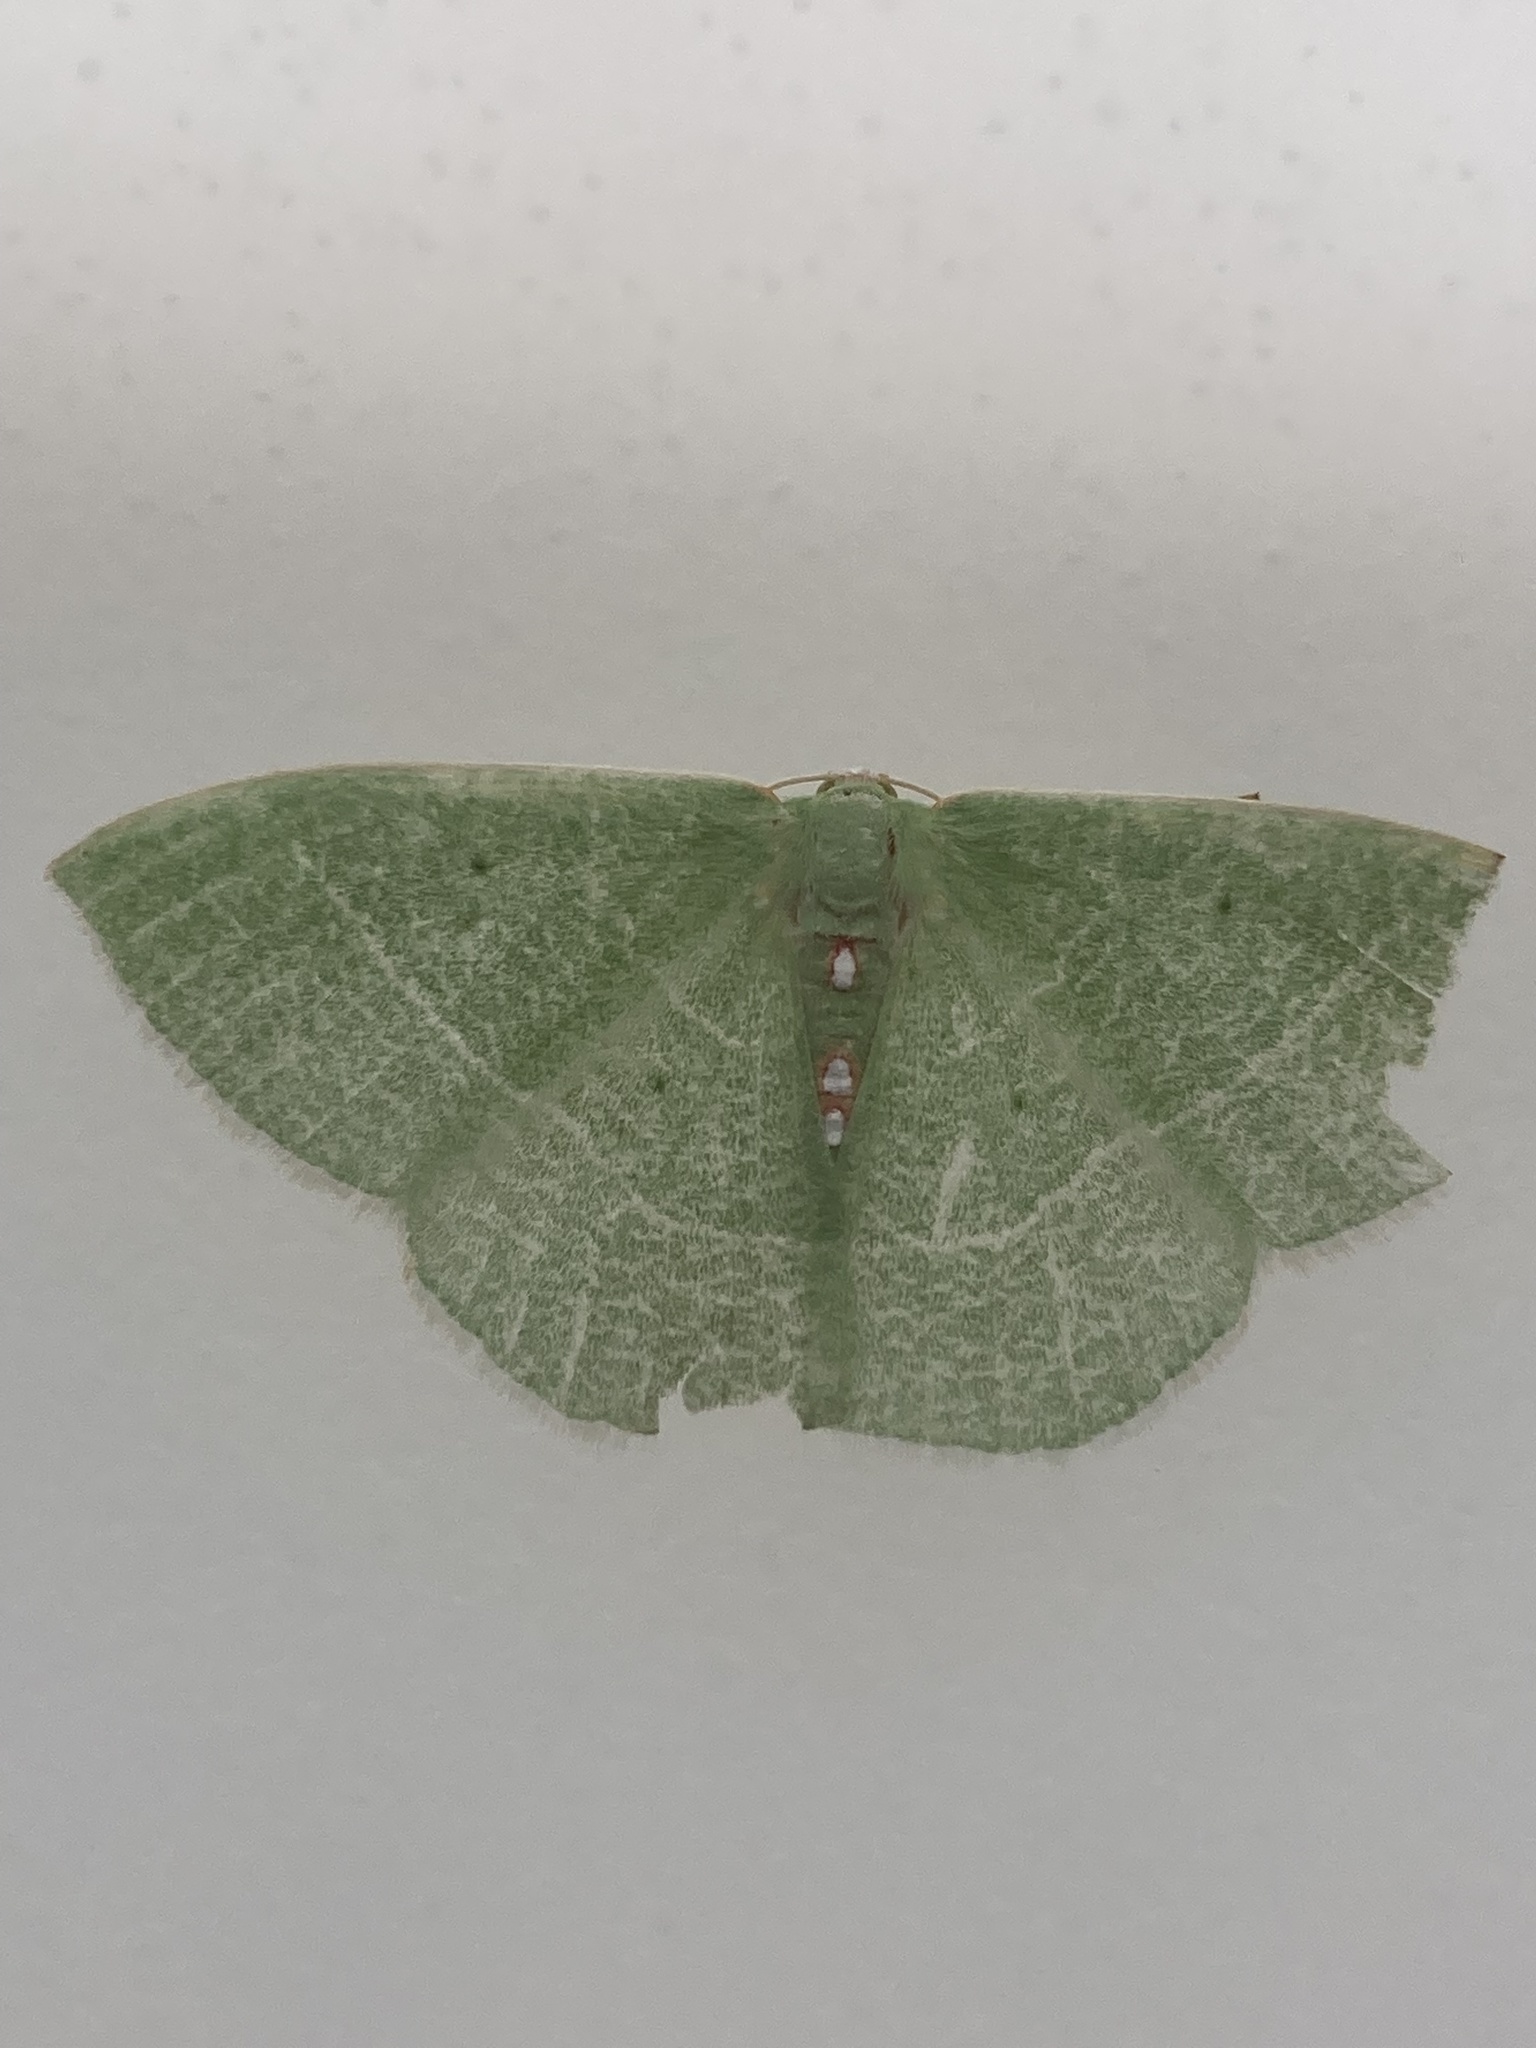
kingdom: Animalia
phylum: Arthropoda
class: Insecta
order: Lepidoptera
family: Geometridae
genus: Nemoria
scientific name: Nemoria darwiniata
